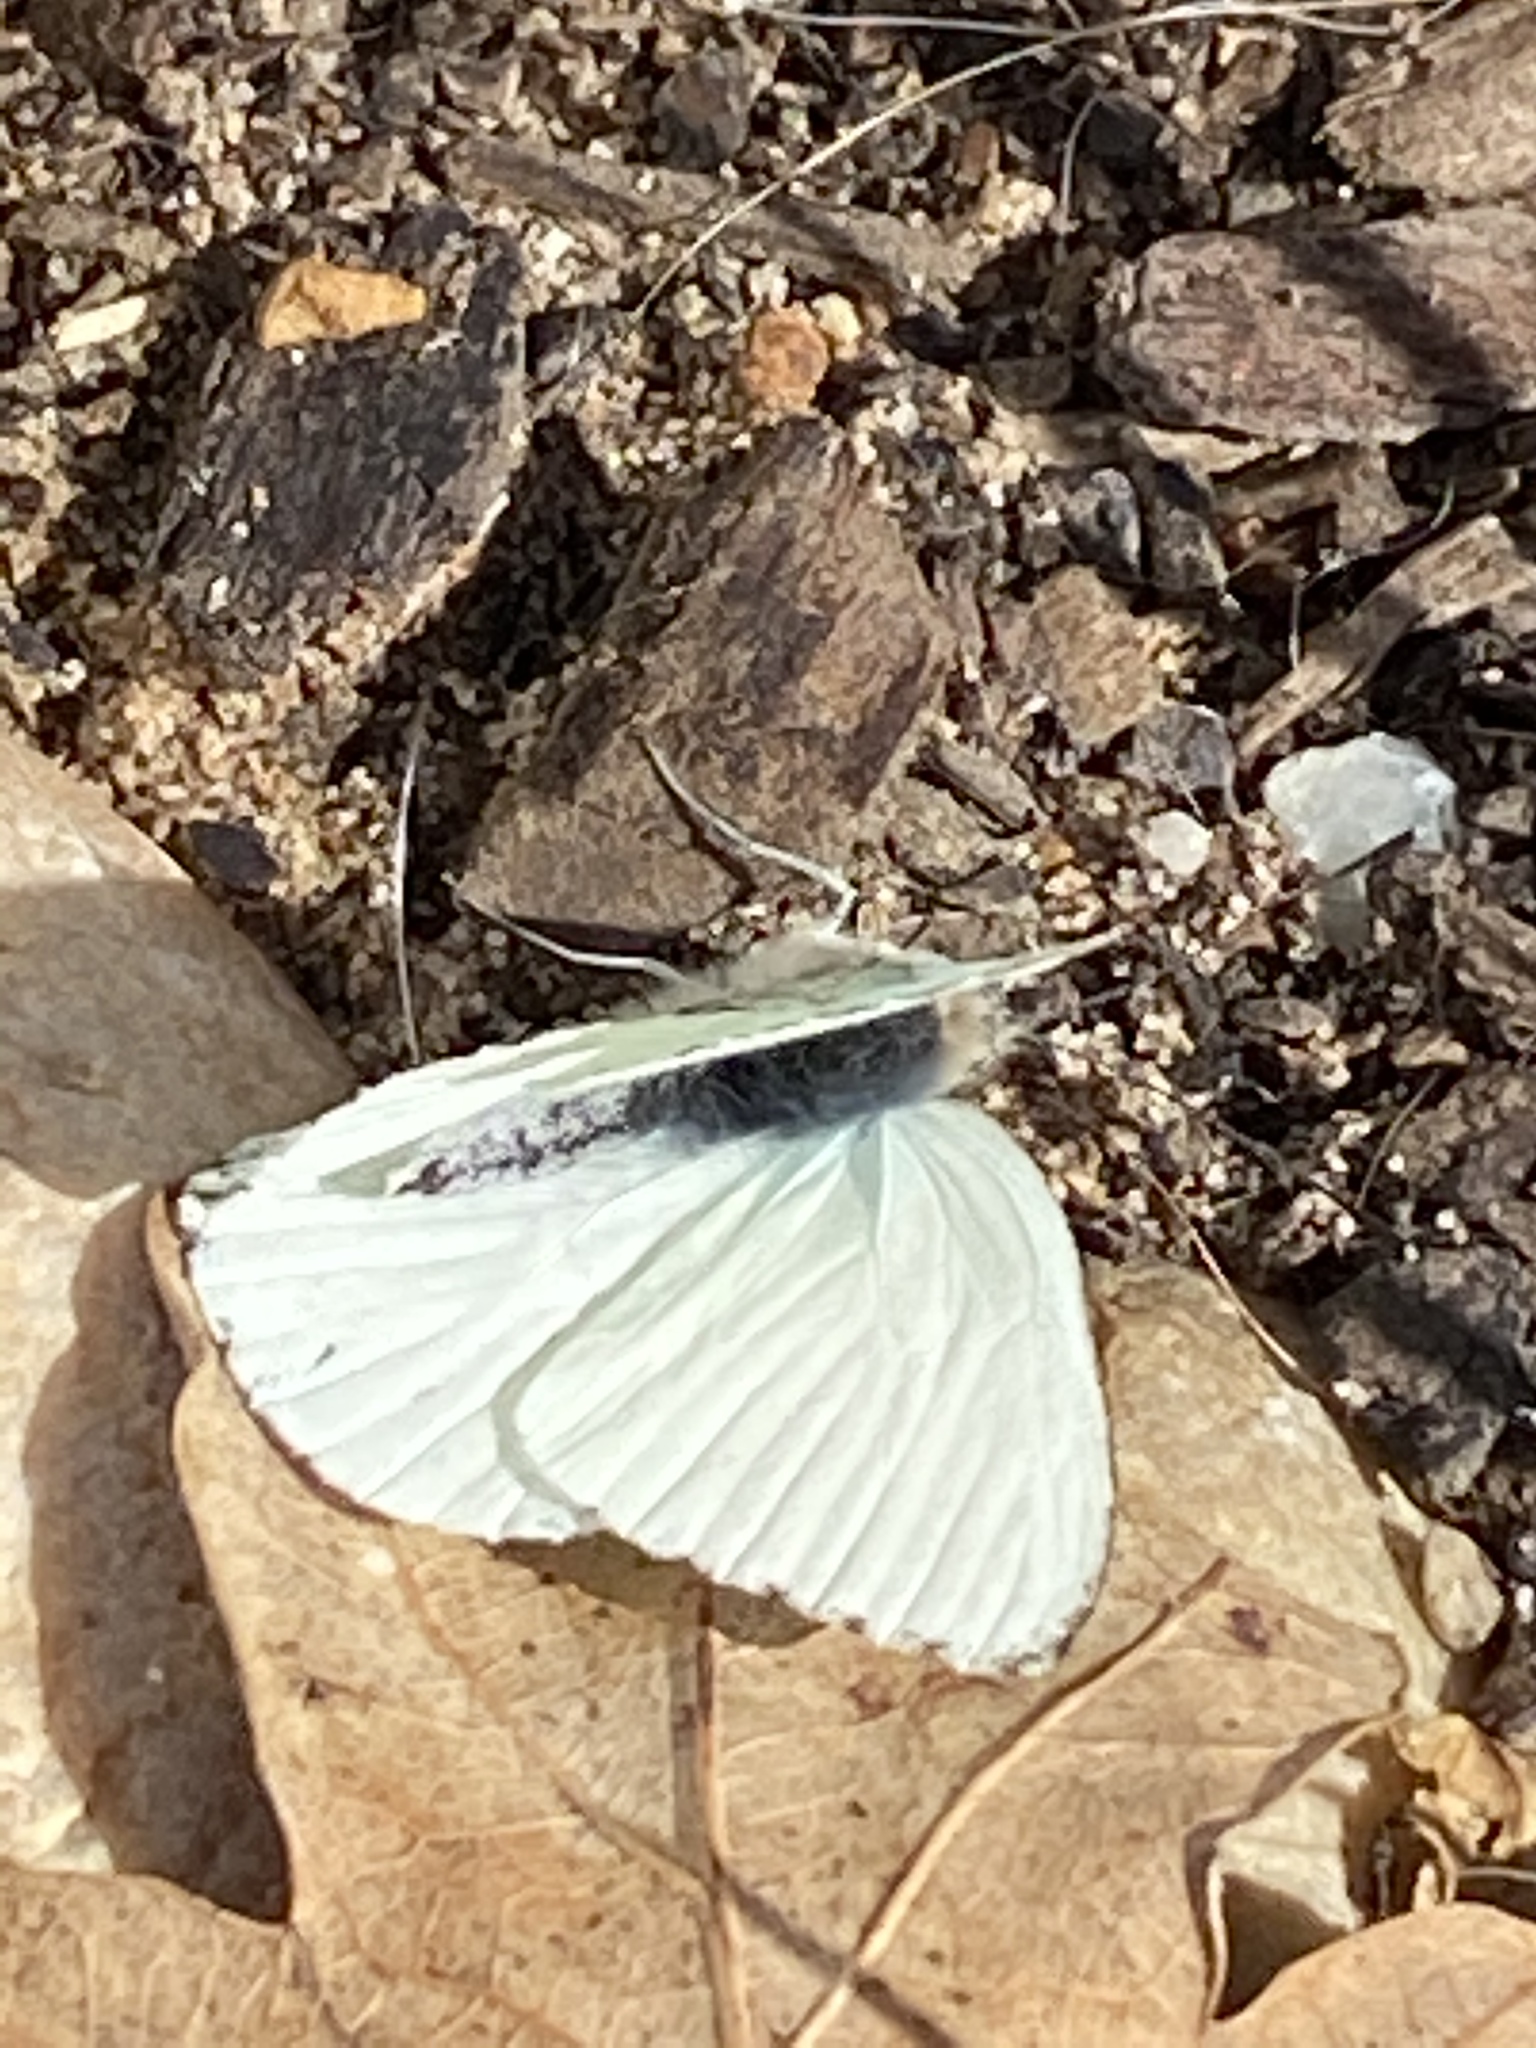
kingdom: Animalia
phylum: Arthropoda
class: Insecta
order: Lepidoptera
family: Pieridae
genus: Dixeia
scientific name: Dixeia charina
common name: African small white
